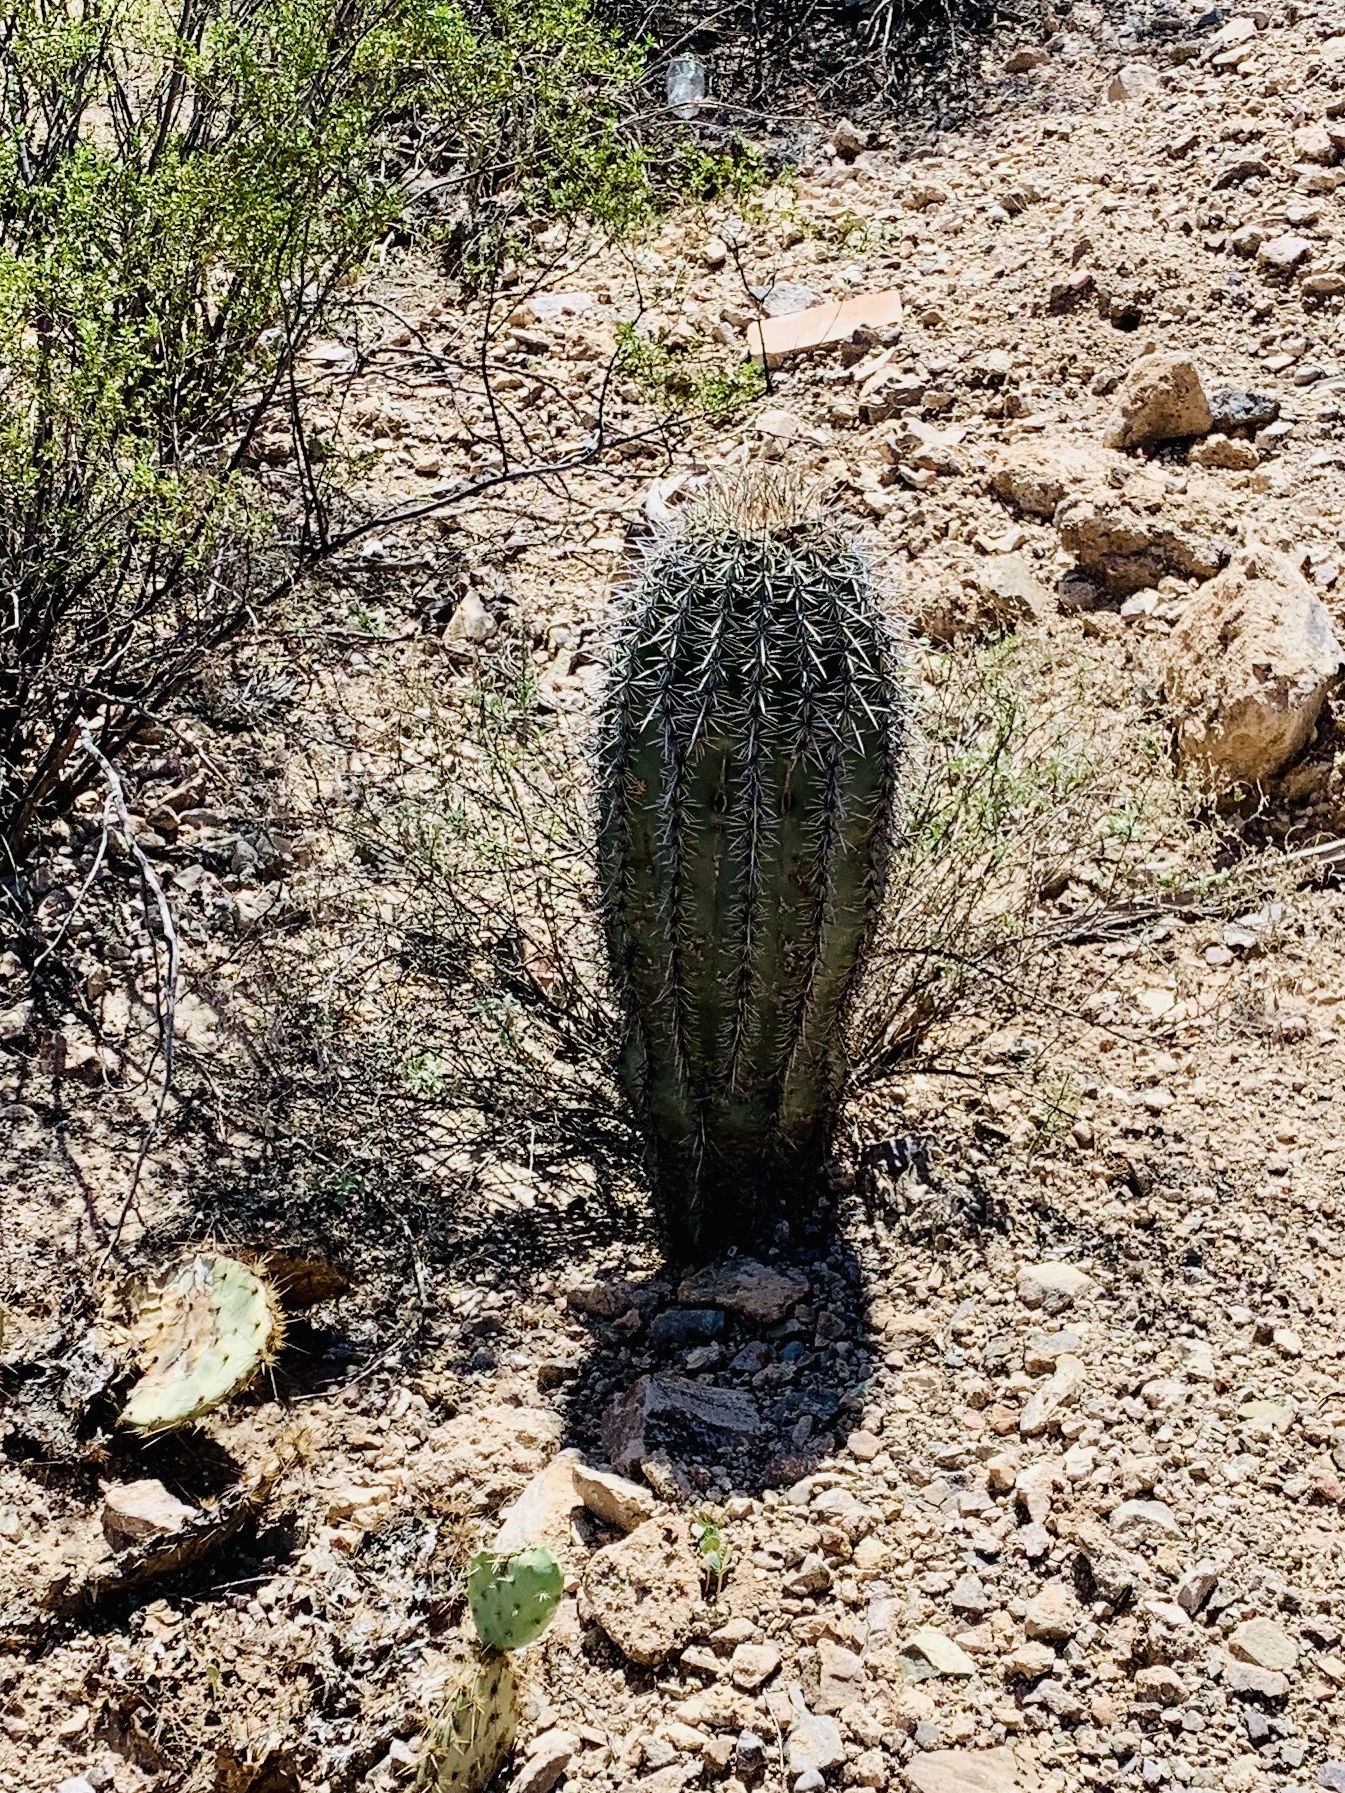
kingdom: Plantae
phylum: Tracheophyta
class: Magnoliopsida
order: Caryophyllales
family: Cactaceae
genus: Carnegiea
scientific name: Carnegiea gigantea
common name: Saguaro
